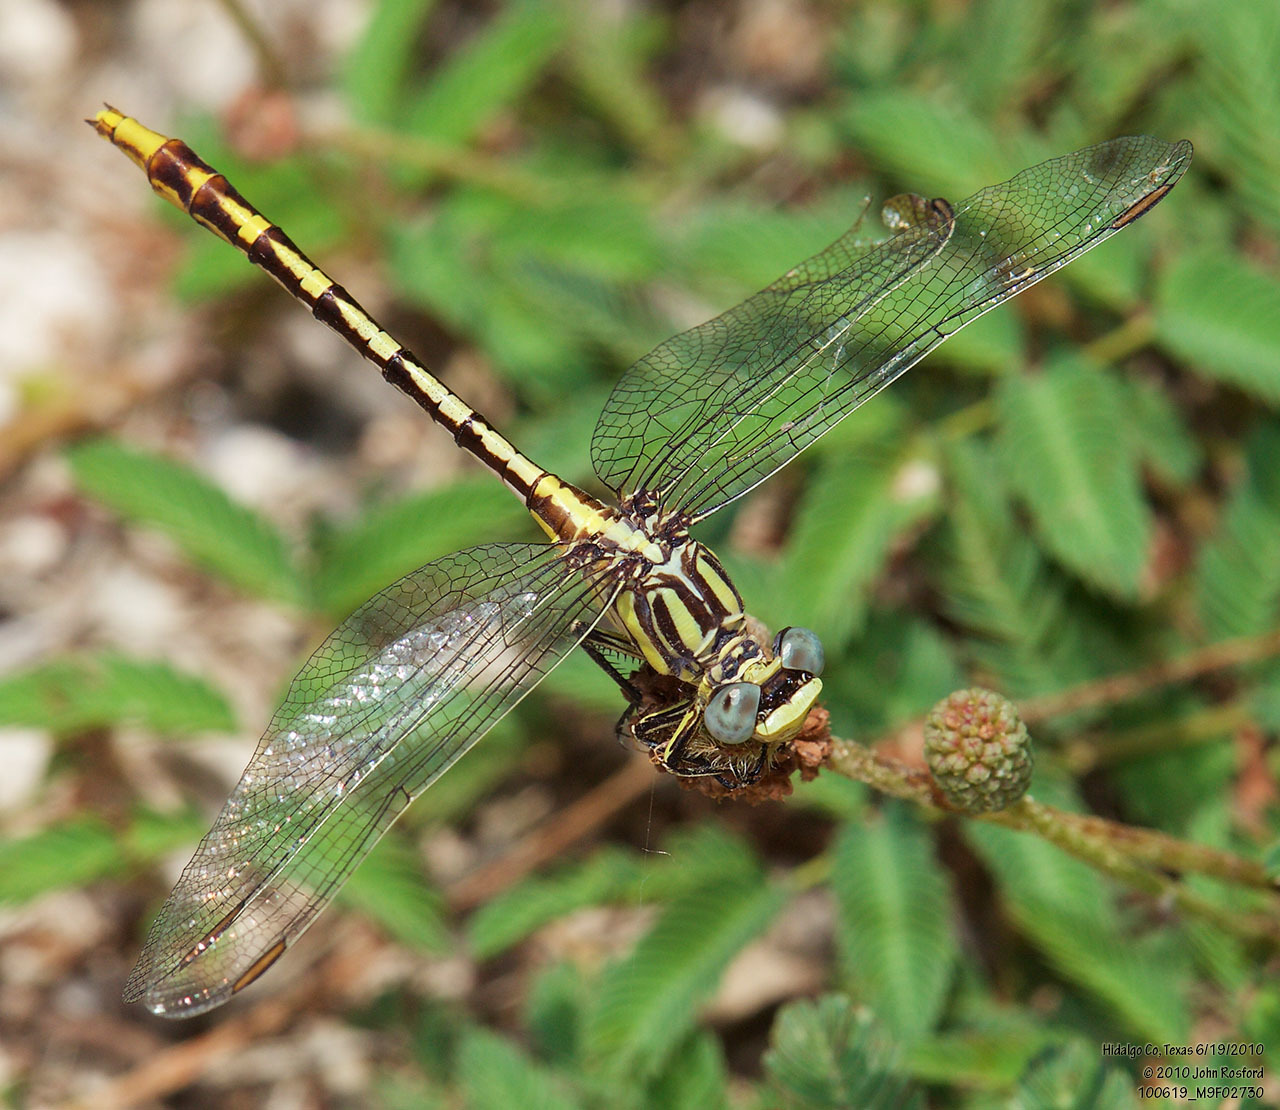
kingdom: Animalia
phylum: Arthropoda
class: Insecta
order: Odonata
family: Gomphidae
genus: Phanogomphus
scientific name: Phanogomphus militaris
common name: Sulphur-tipped clubtail
